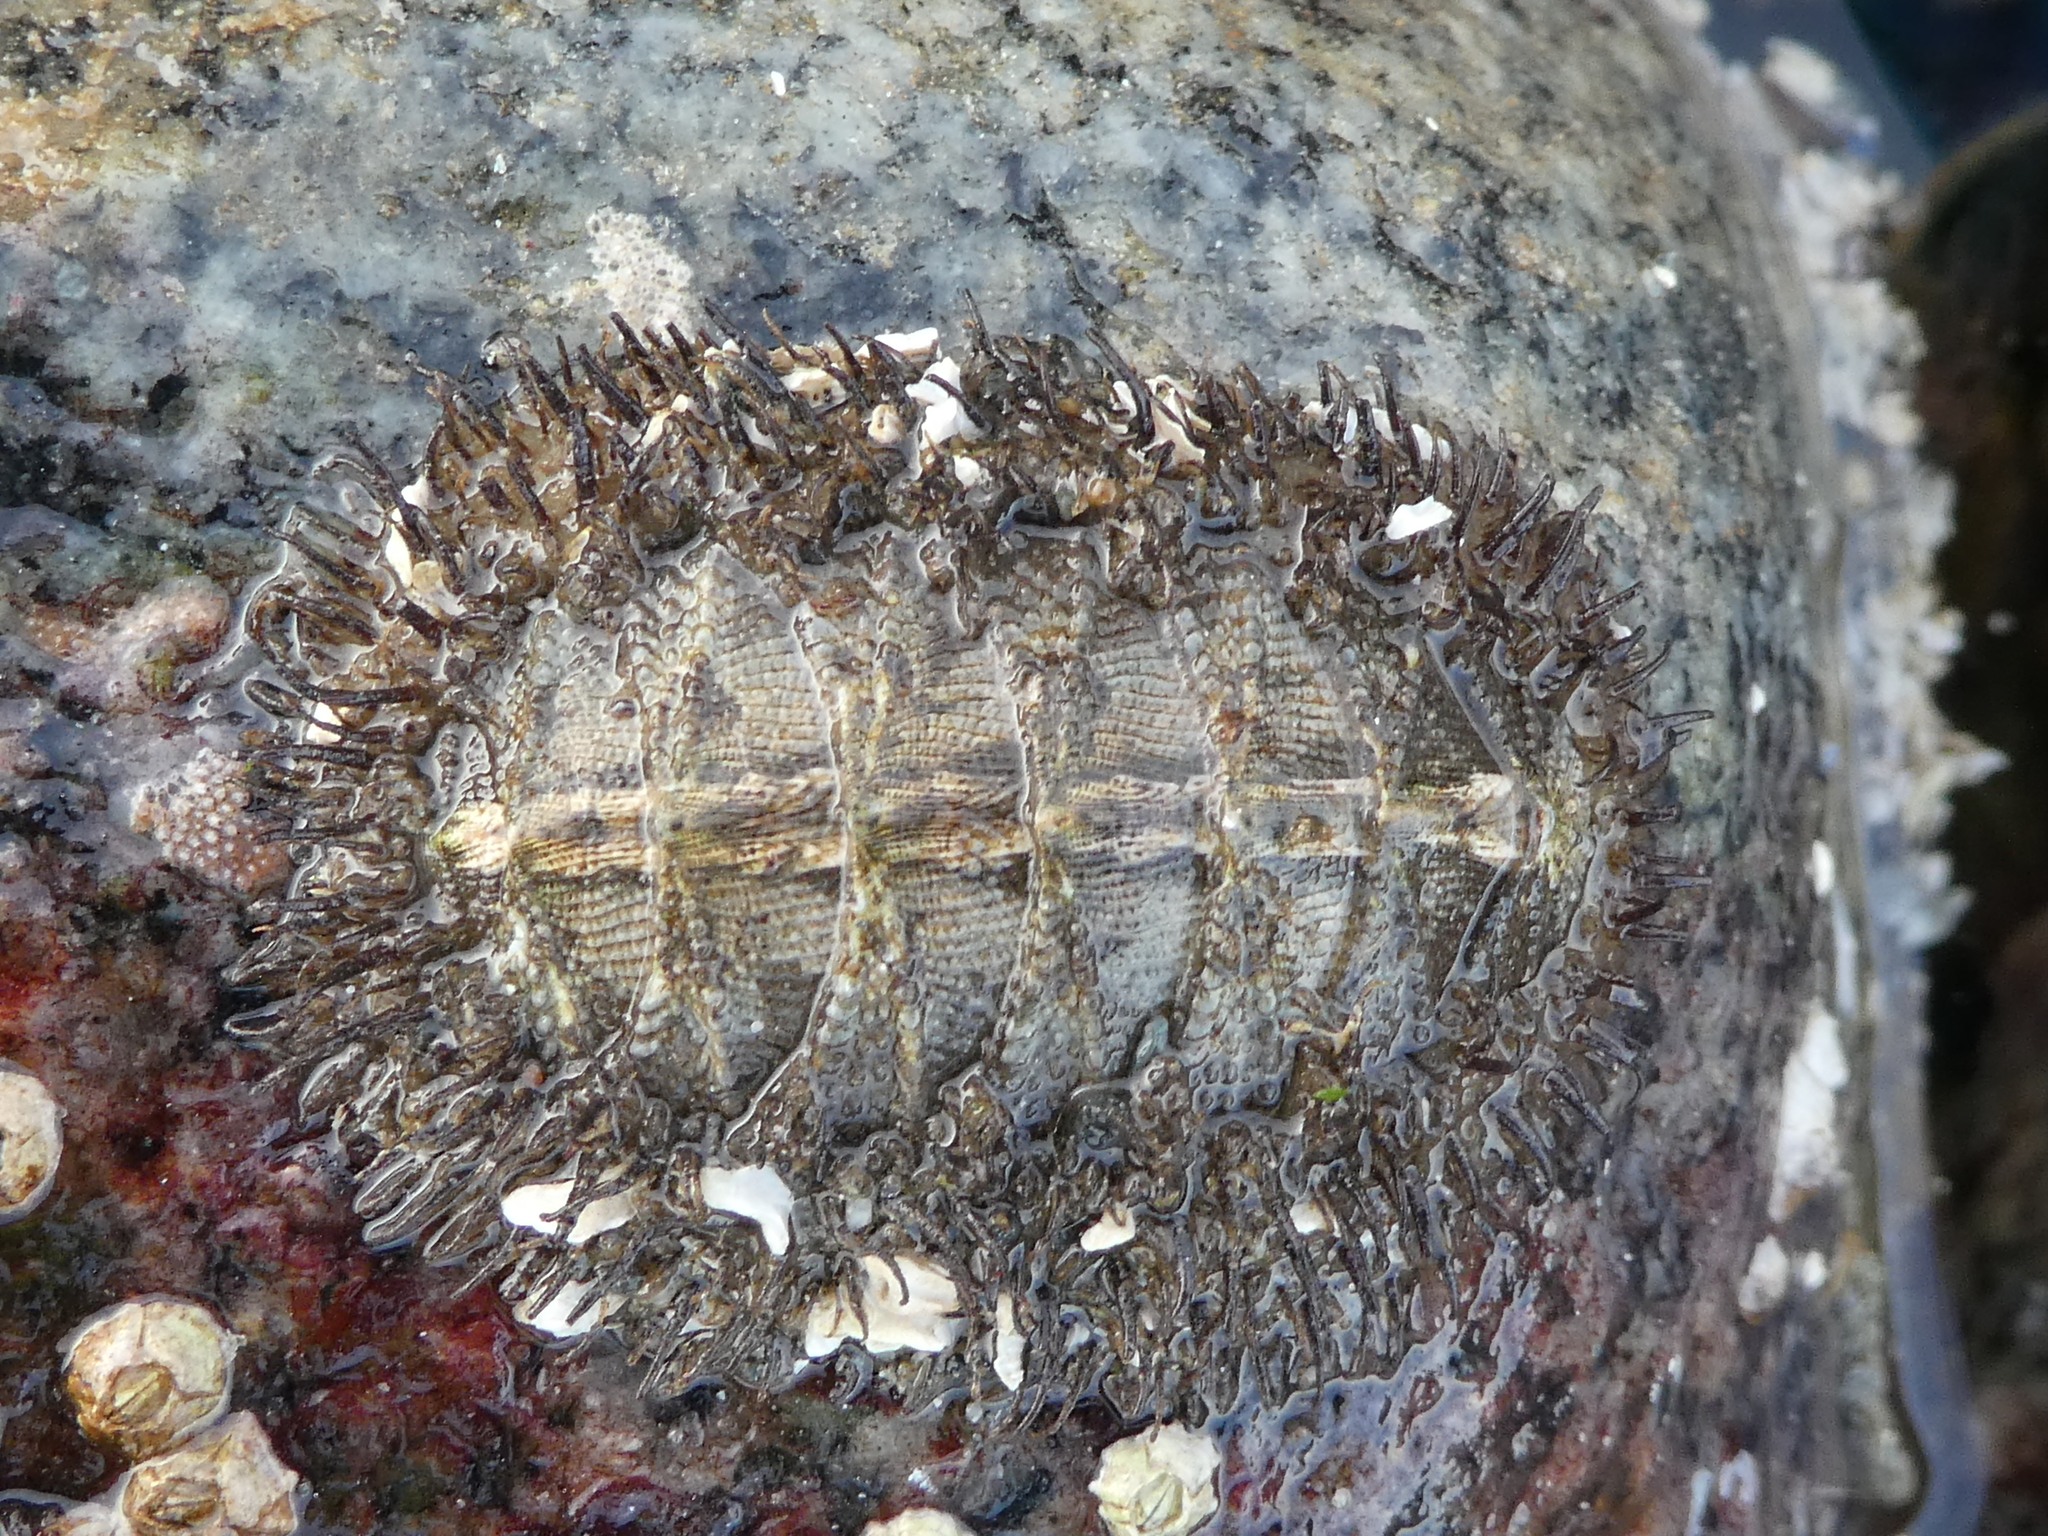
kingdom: Animalia
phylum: Mollusca
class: Polyplacophora
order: Chitonida
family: Mopaliidae
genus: Mopalia
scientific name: Mopalia muscosa
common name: Mossy chiton
